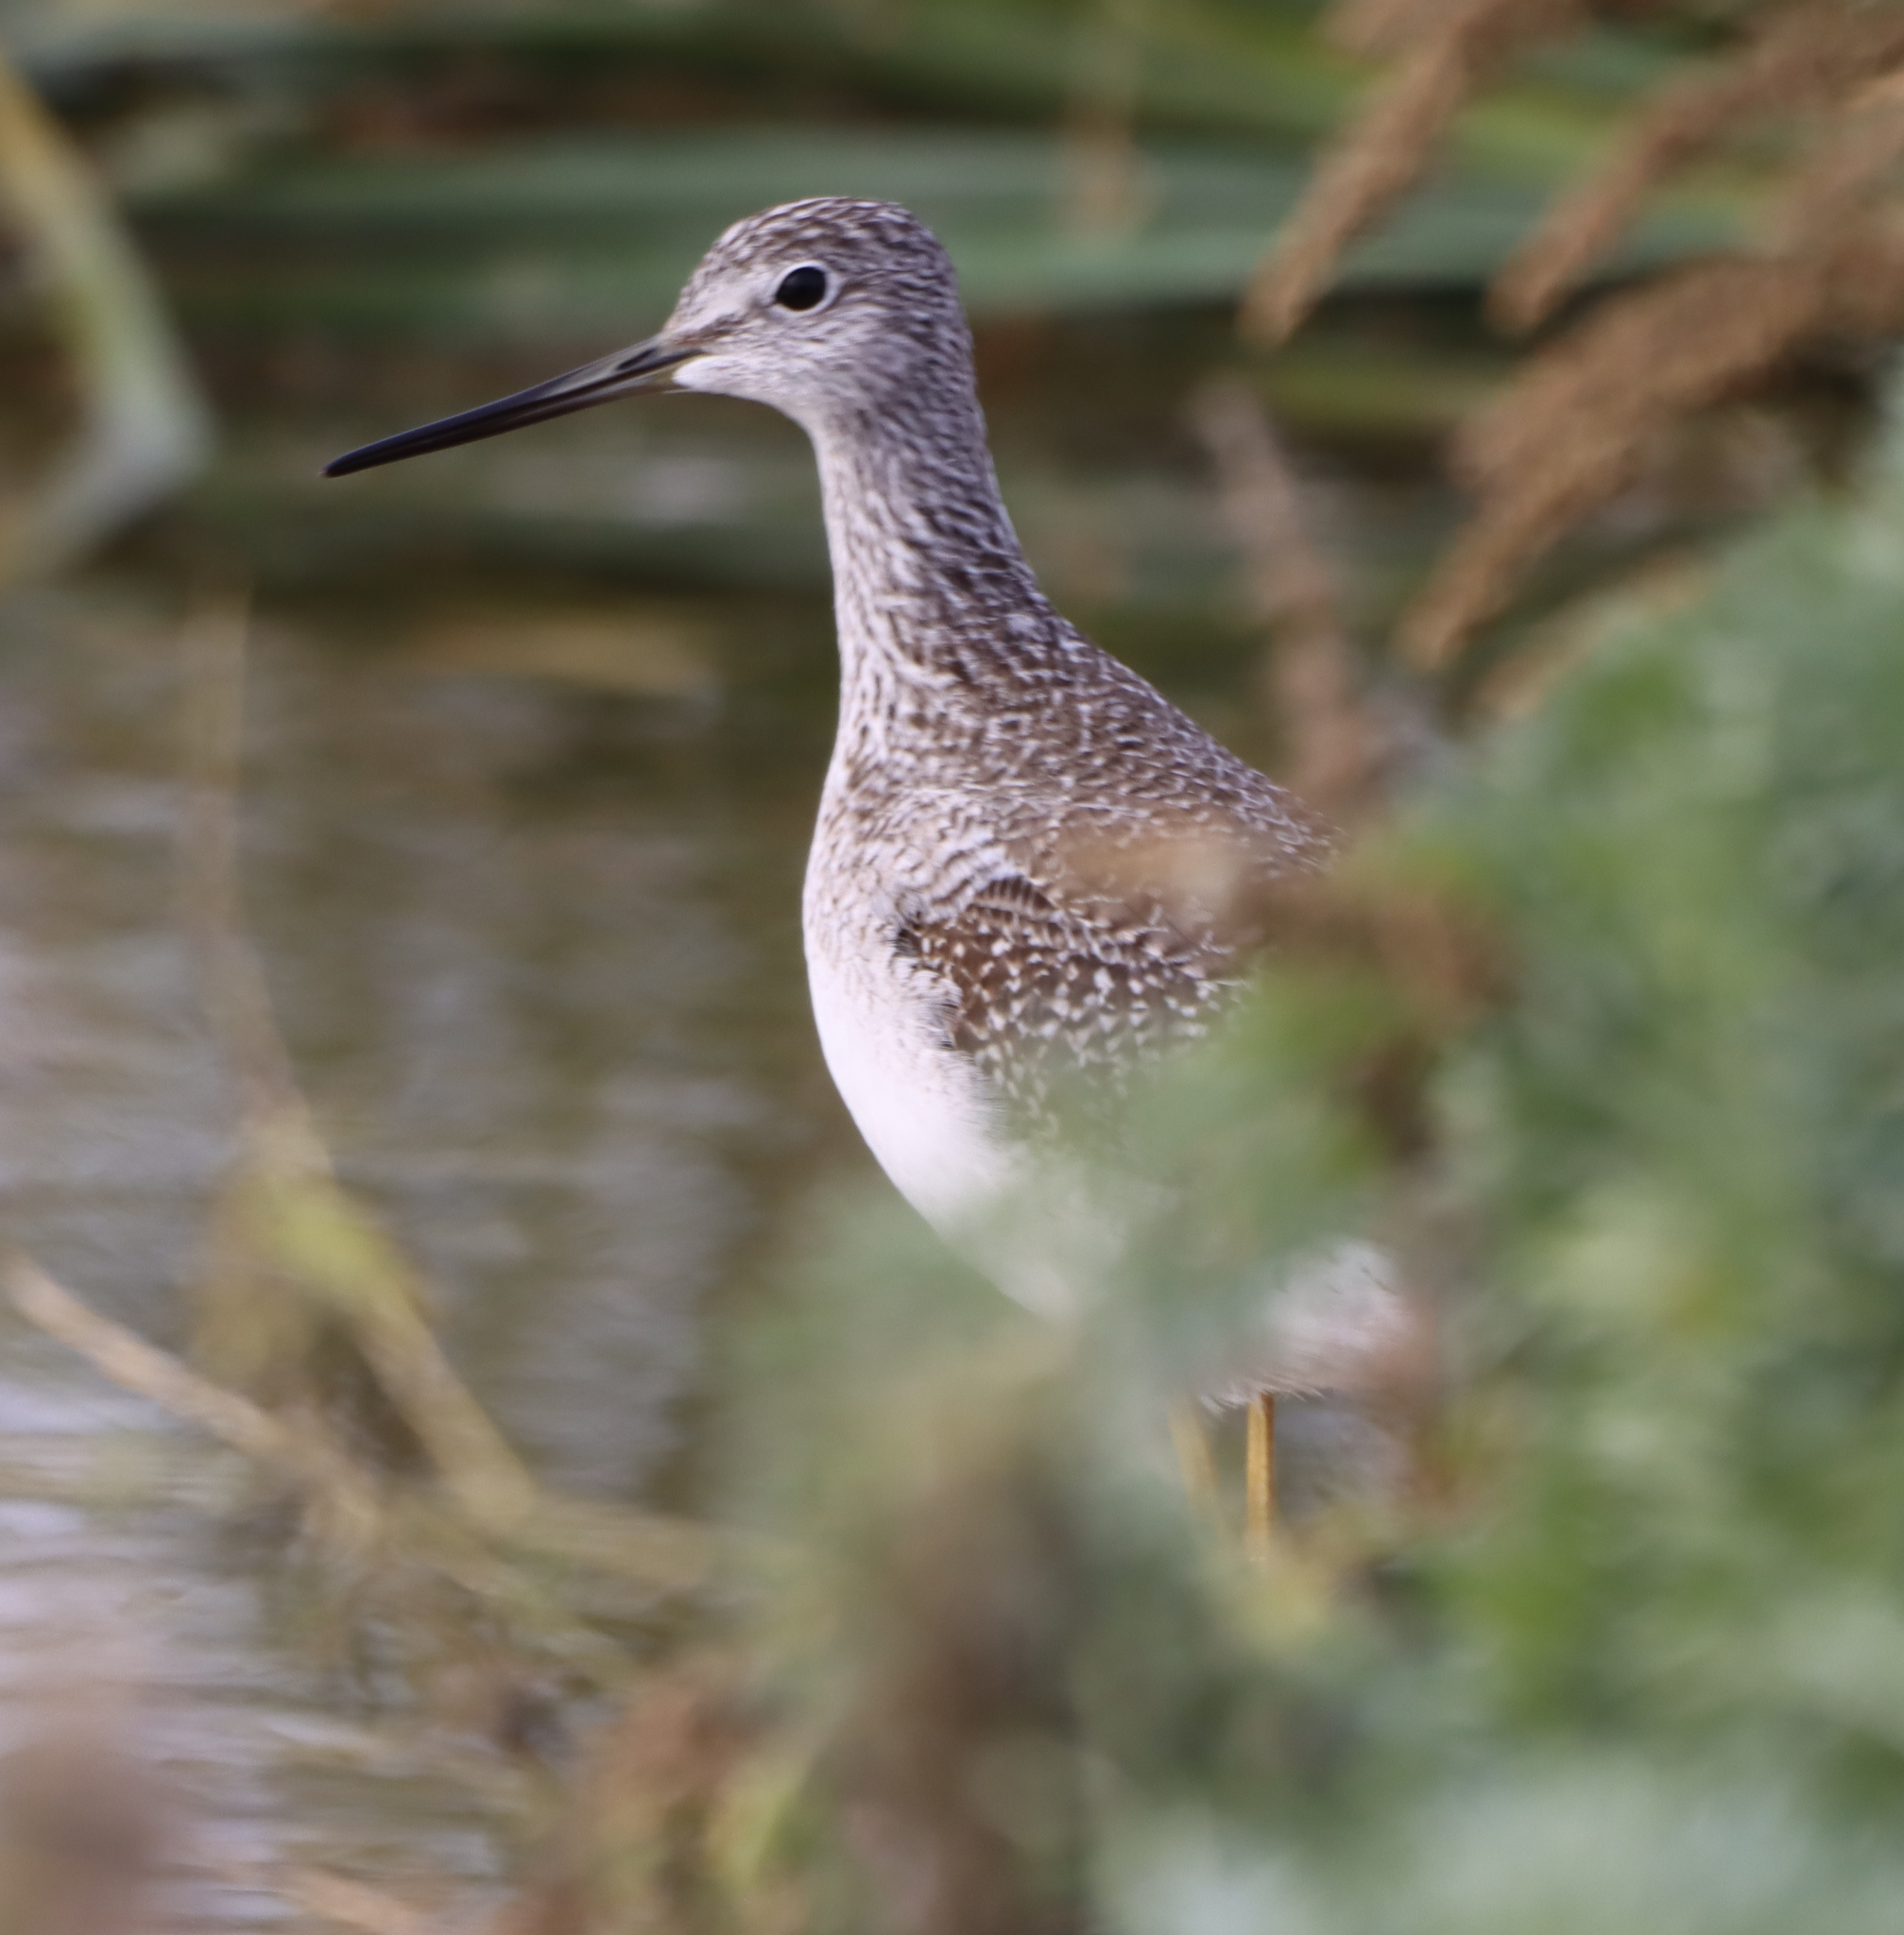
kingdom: Animalia
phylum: Chordata
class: Aves
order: Charadriiformes
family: Scolopacidae
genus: Tringa
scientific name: Tringa melanoleuca
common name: Greater yellowlegs
